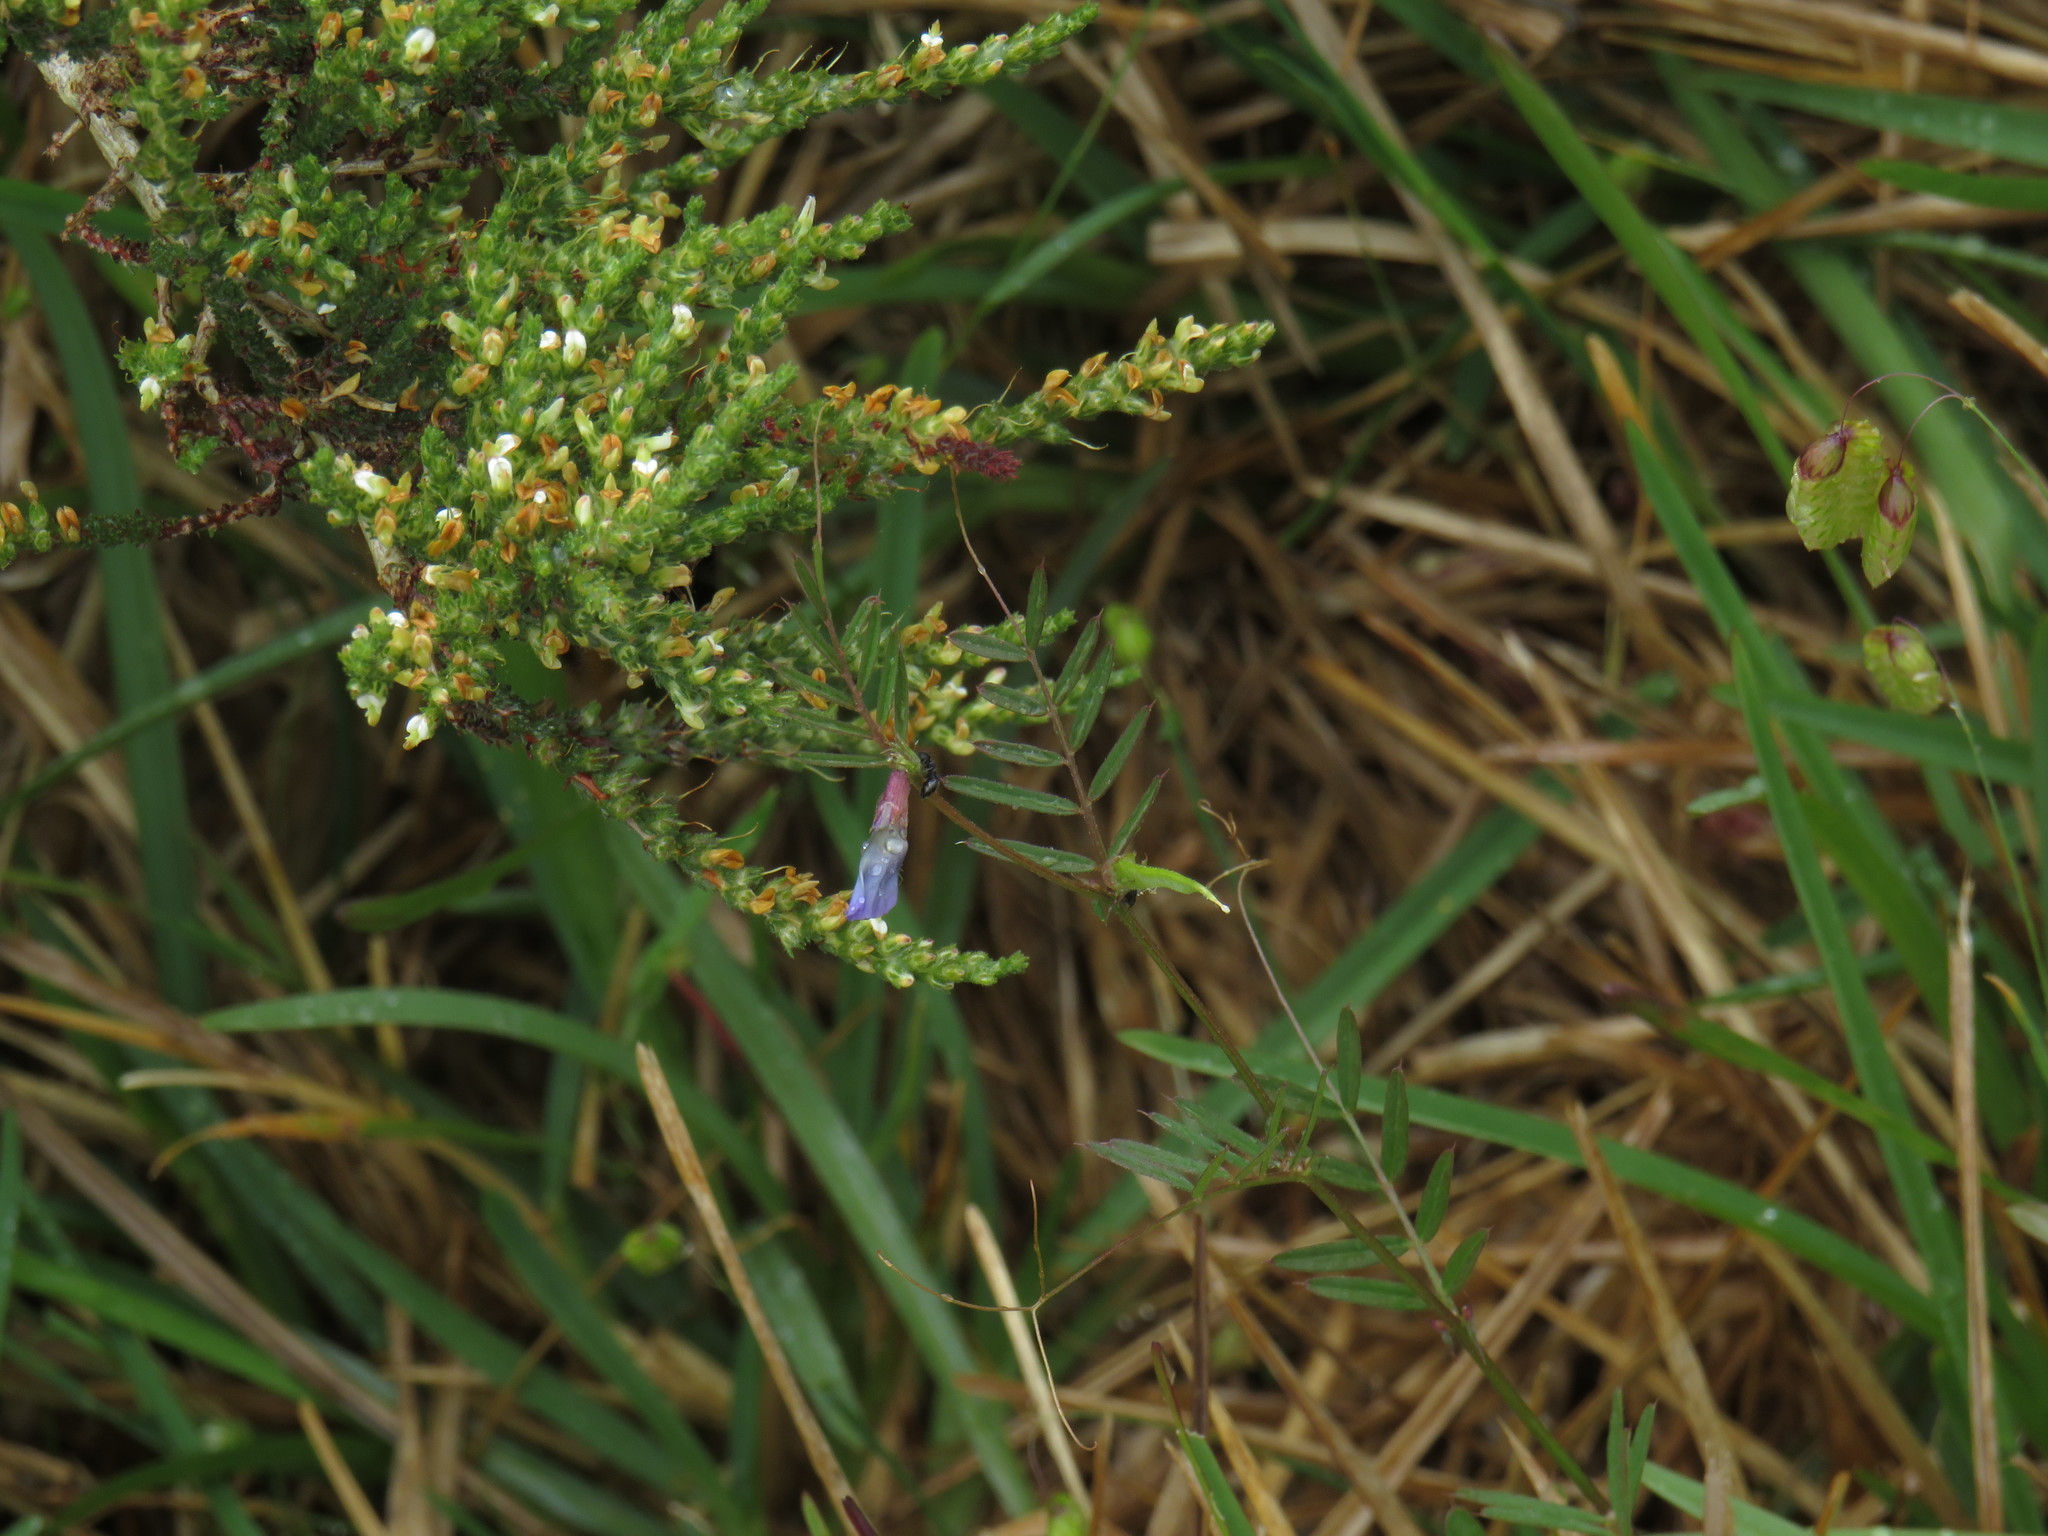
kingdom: Plantae
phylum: Tracheophyta
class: Magnoliopsida
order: Fabales
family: Fabaceae
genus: Vicia
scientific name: Vicia sativa
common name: Garden vetch
